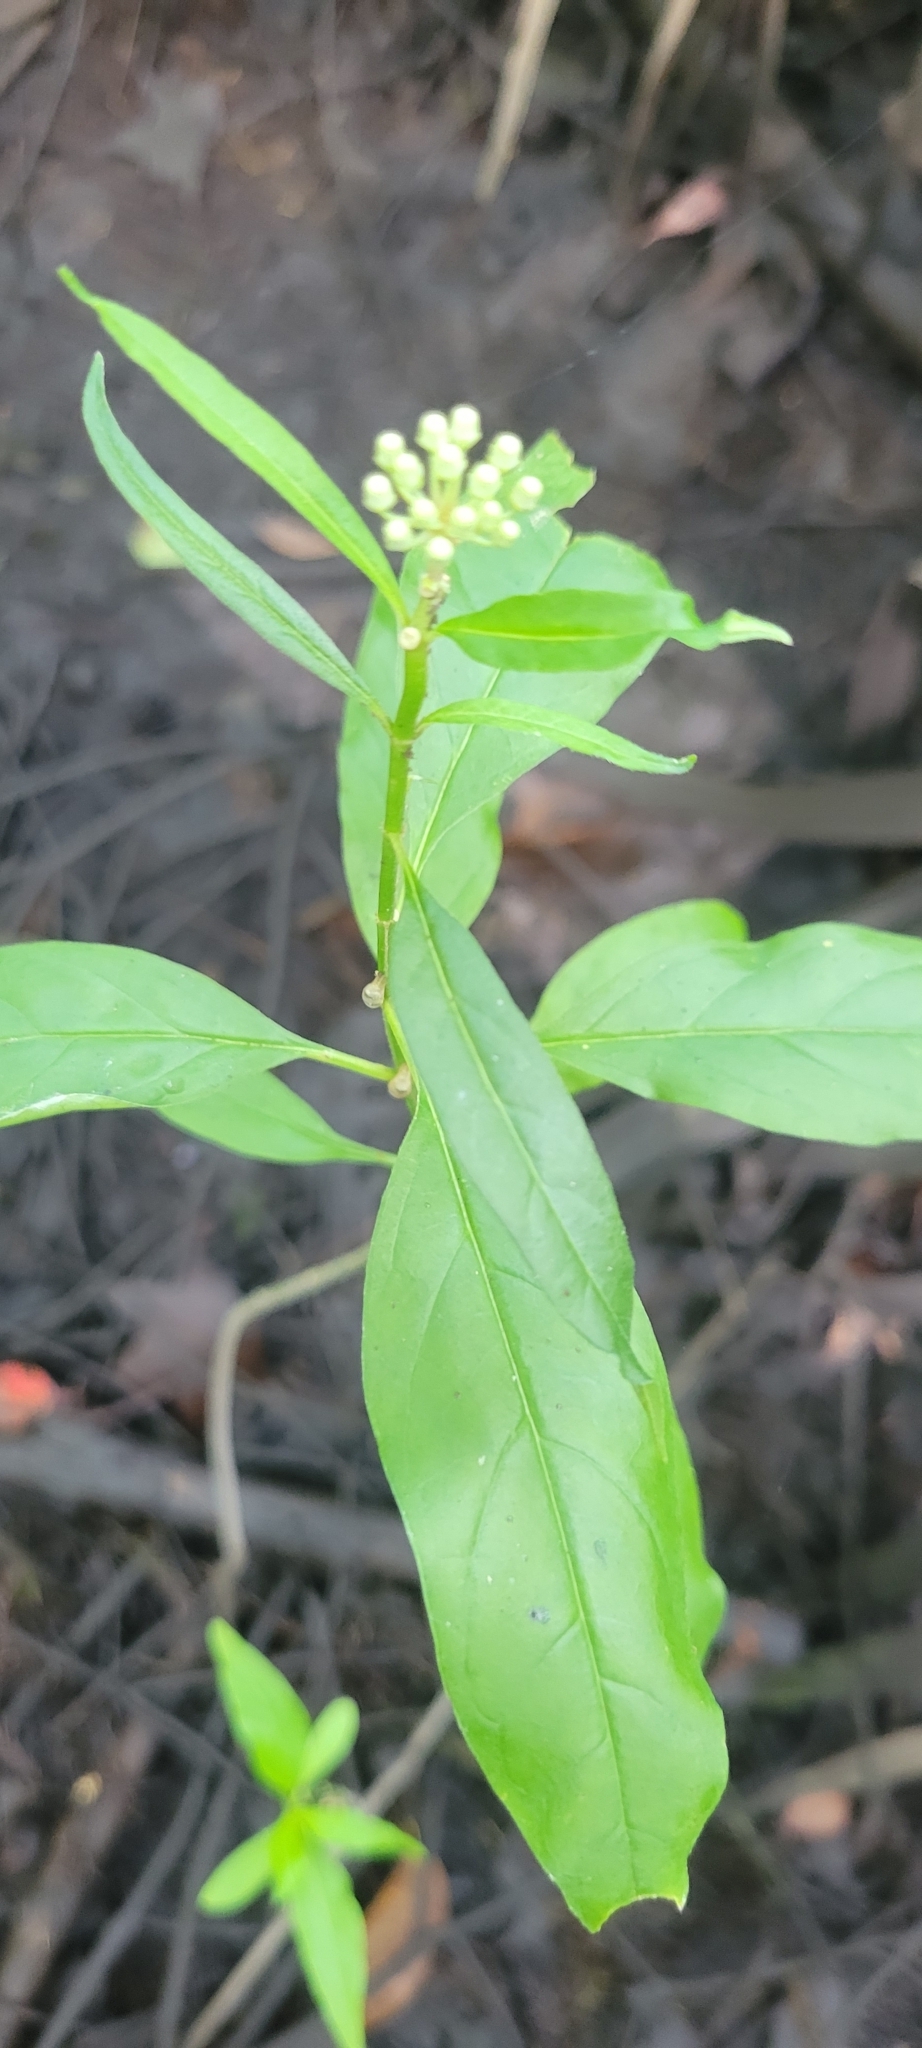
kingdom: Plantae
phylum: Tracheophyta
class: Magnoliopsida
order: Gentianales
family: Apocynaceae
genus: Asclepias
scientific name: Asclepias perennis
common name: Smooth-seed milkweed
